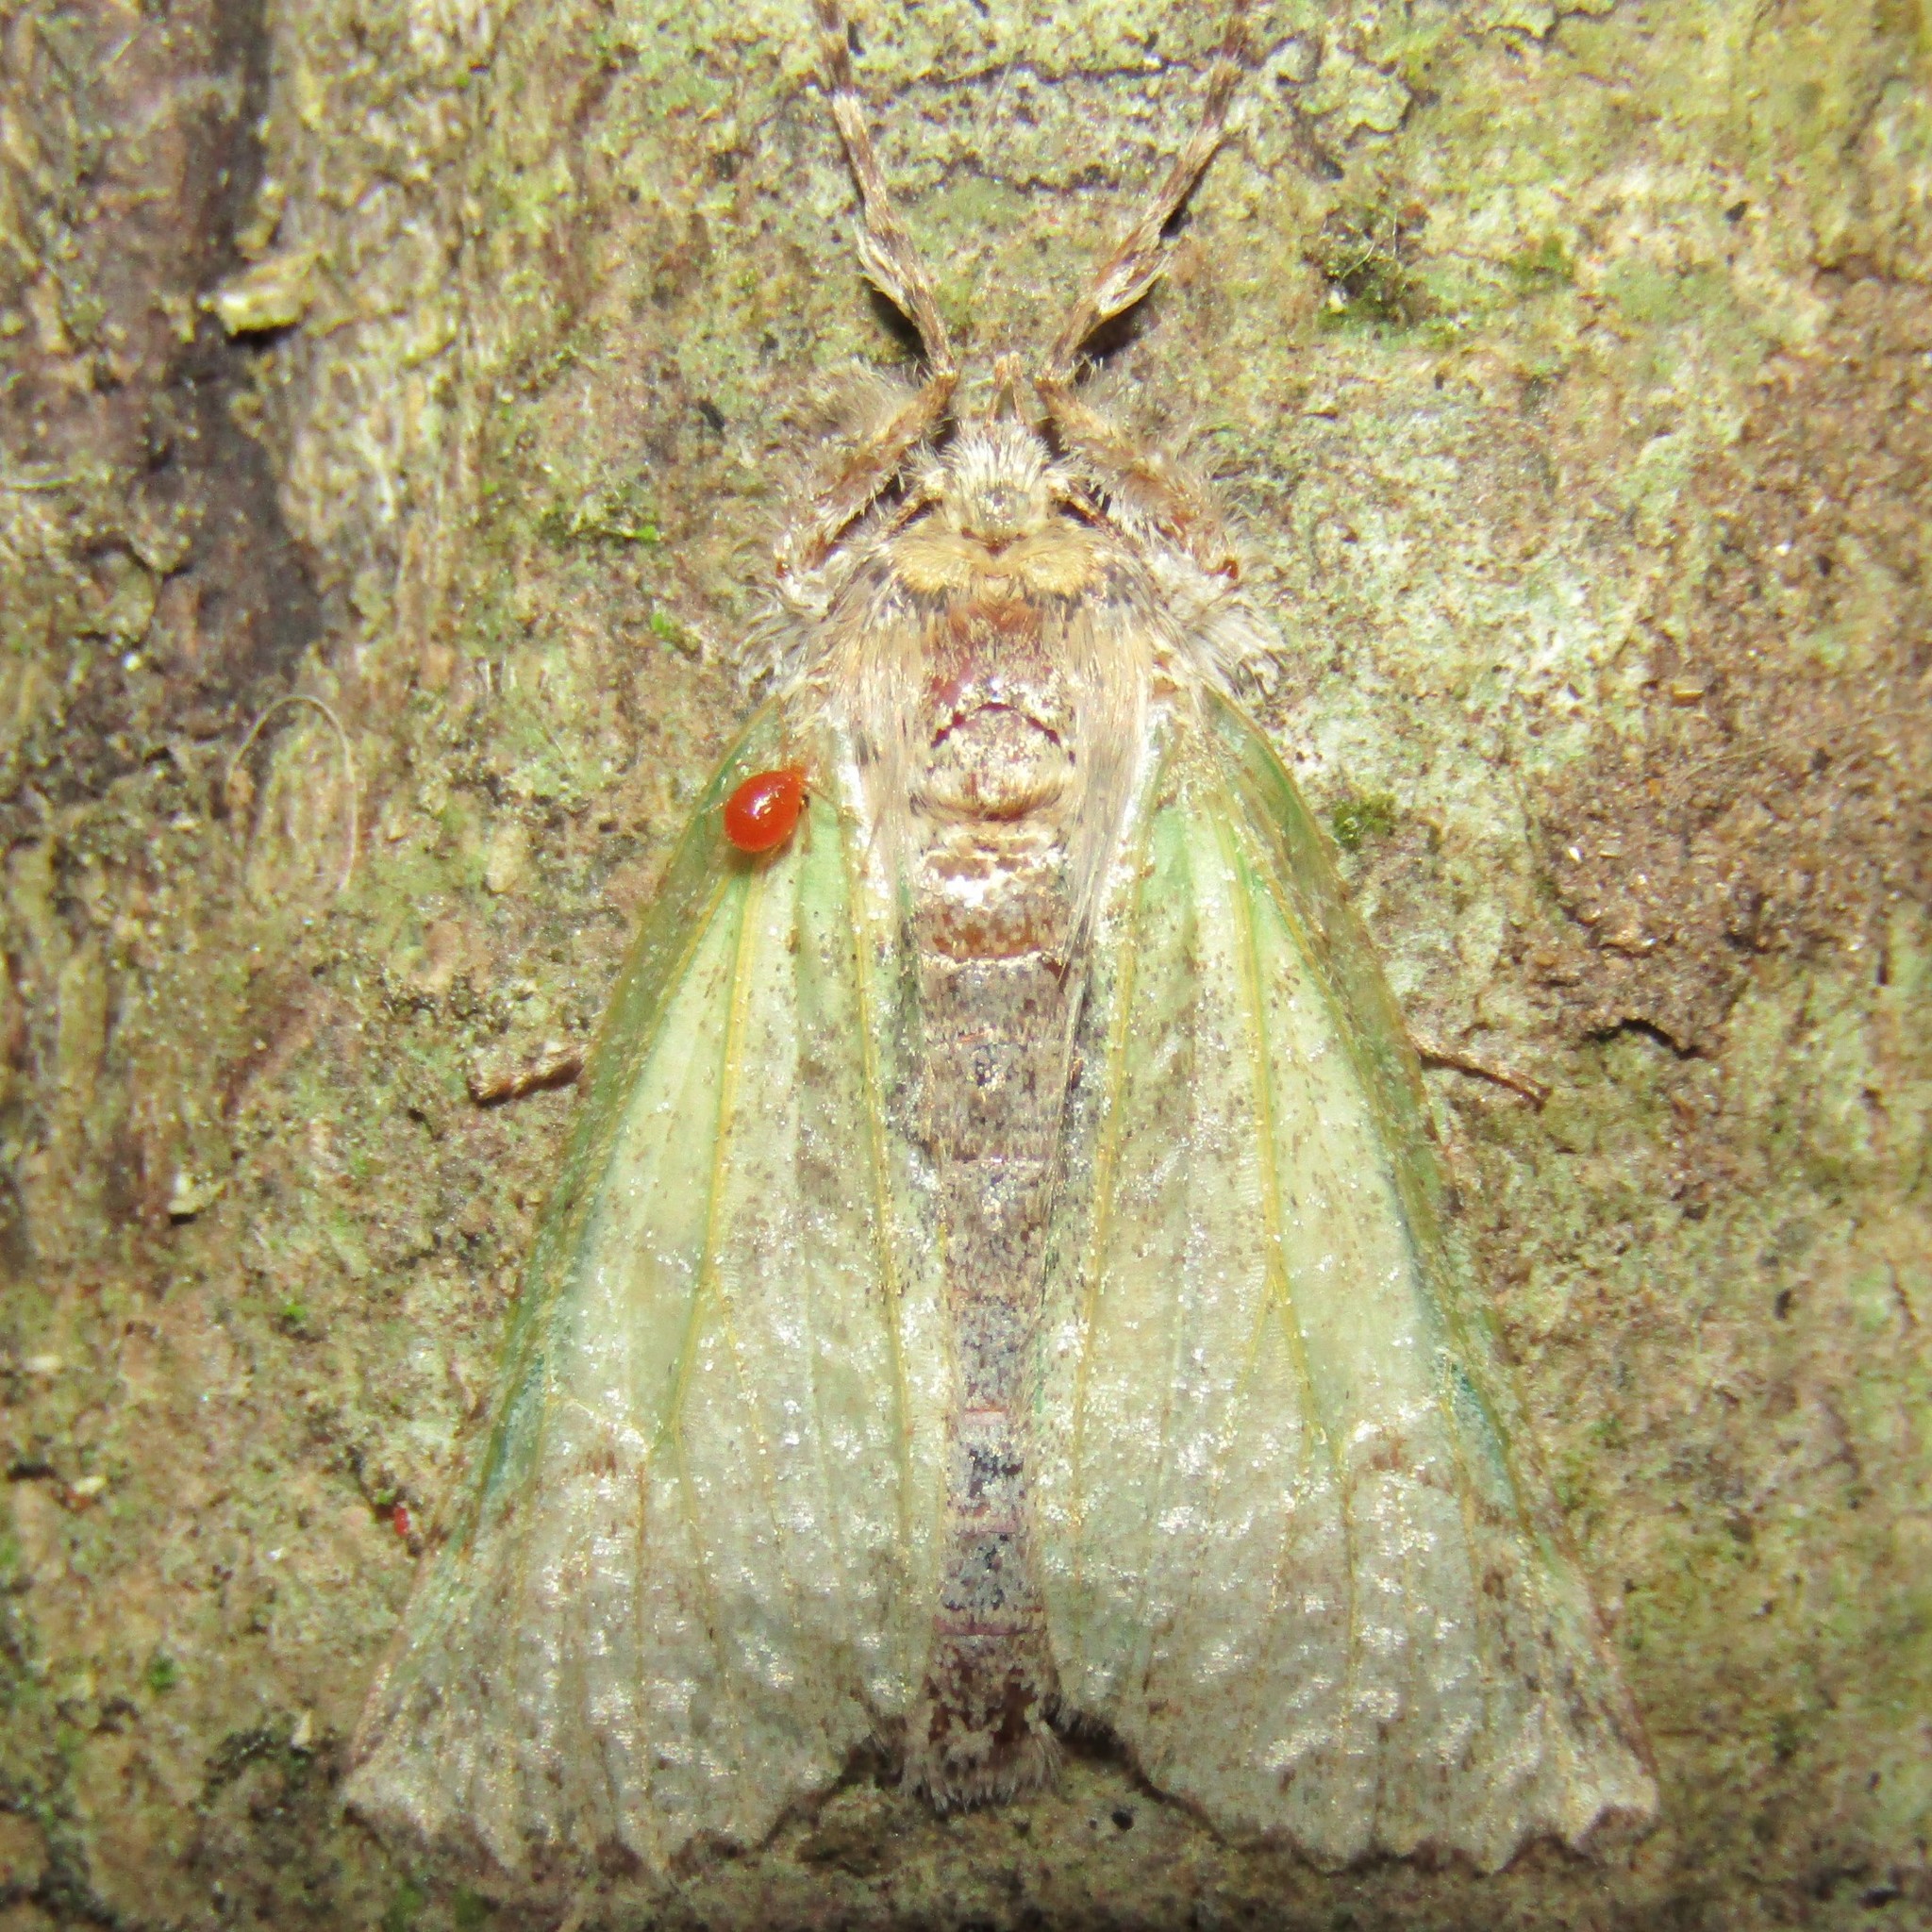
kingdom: Animalia
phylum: Arthropoda
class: Insecta
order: Lepidoptera
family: Geometridae
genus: Declana
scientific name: Declana floccosa
